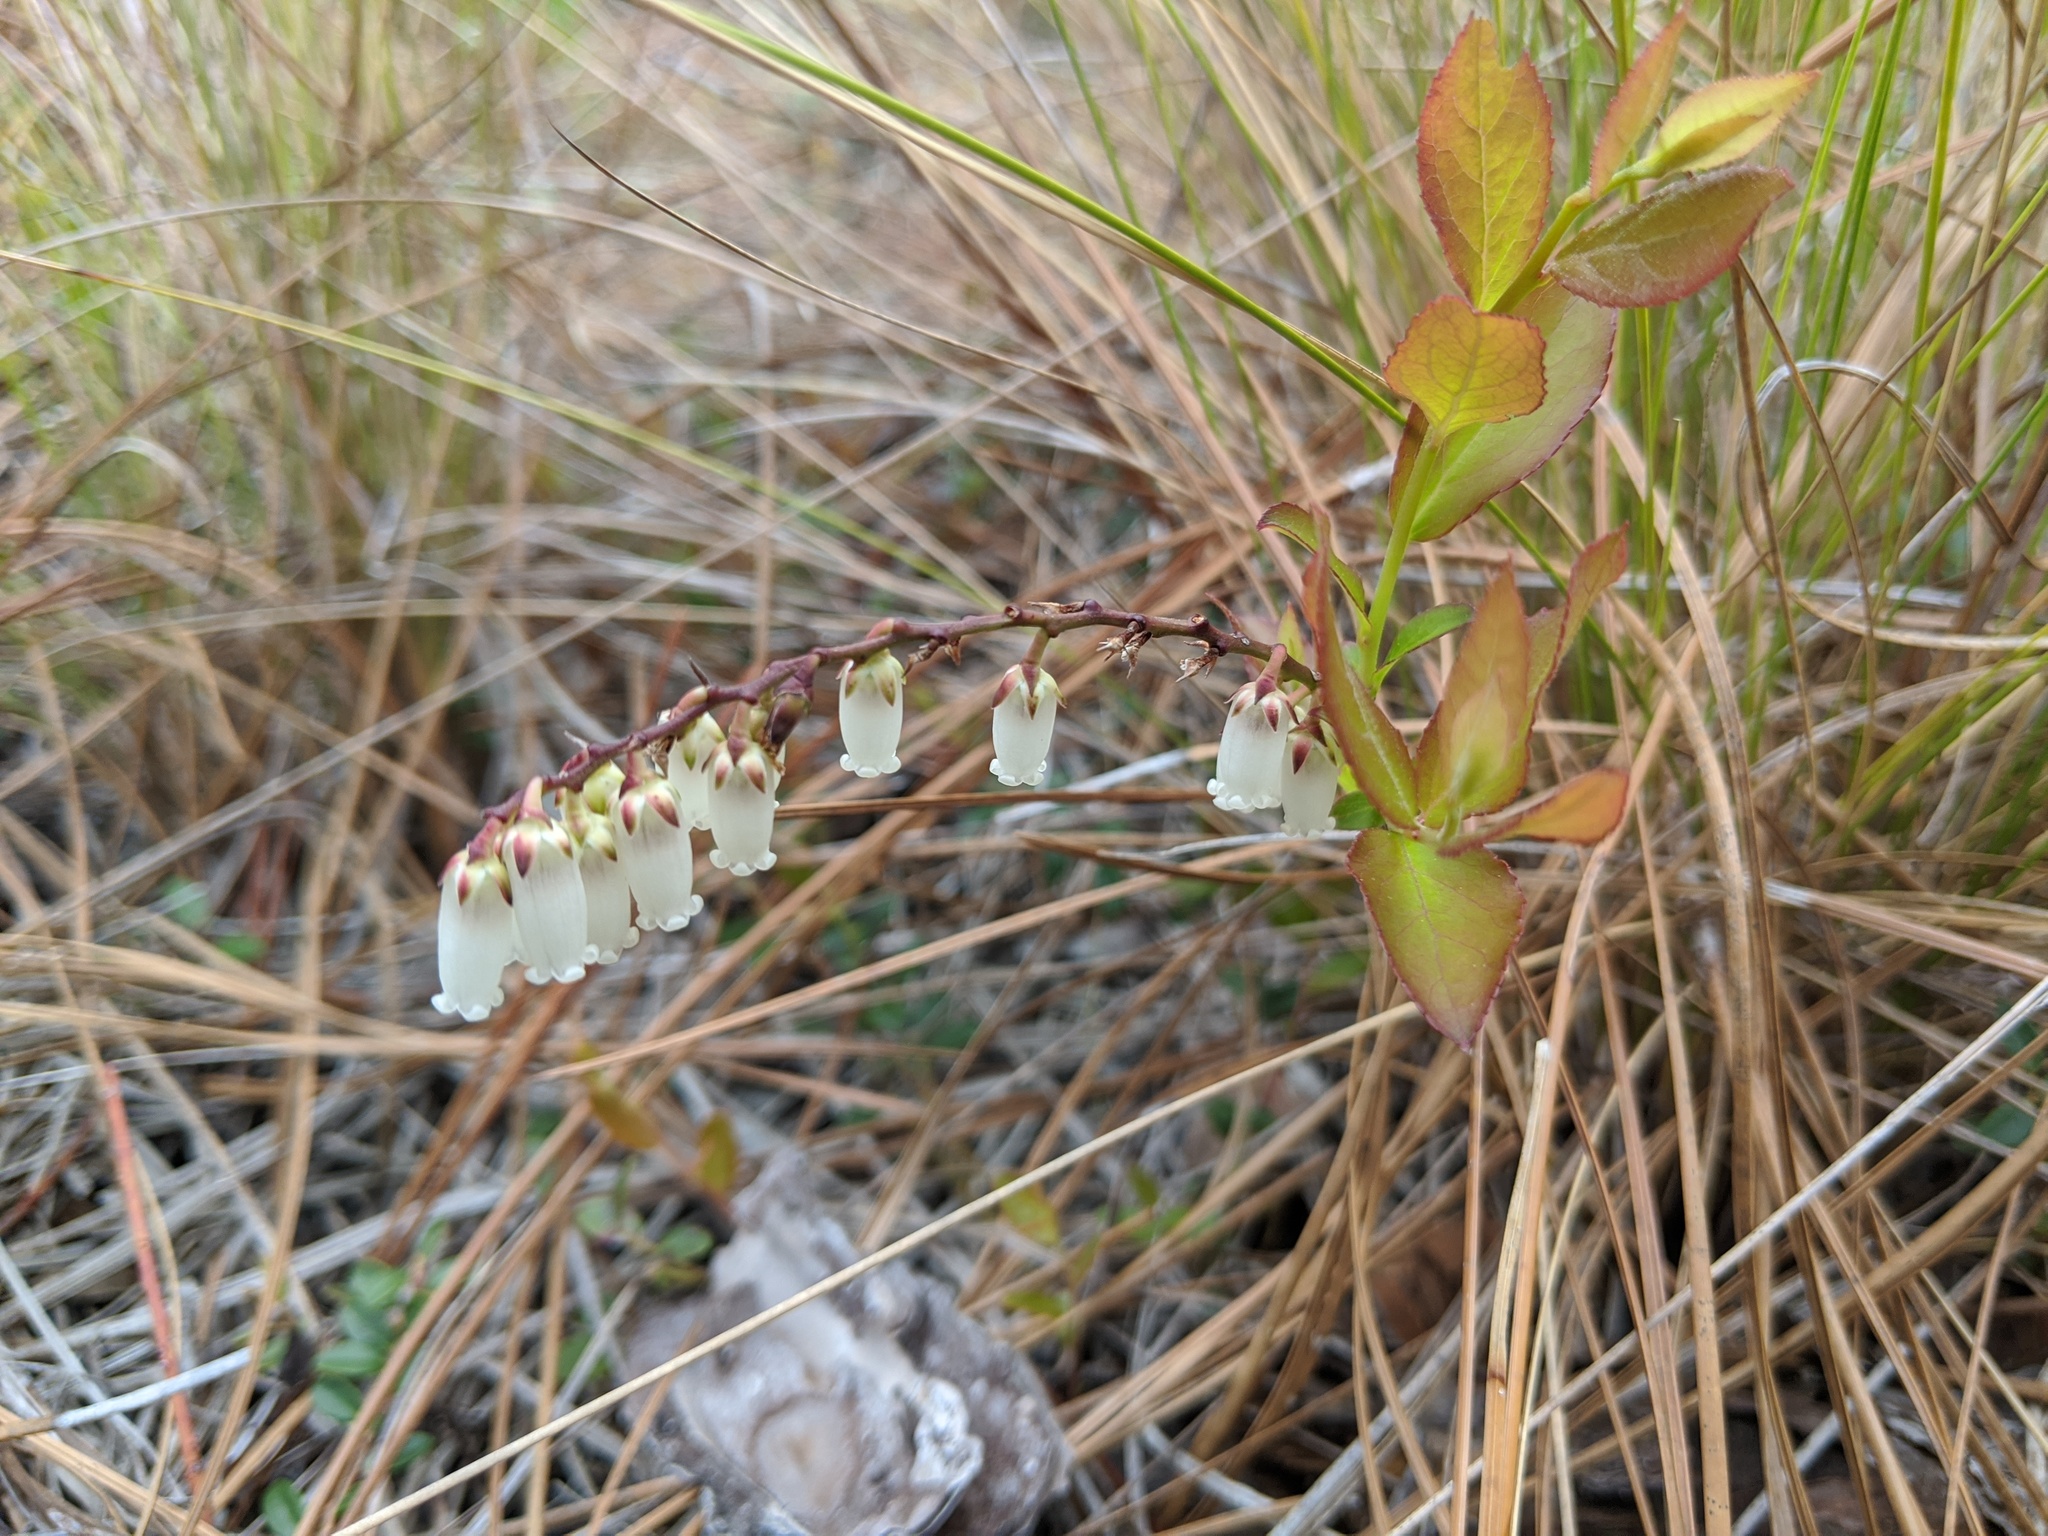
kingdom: Plantae
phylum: Tracheophyta
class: Magnoliopsida
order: Ericales
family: Ericaceae
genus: Eubotrys
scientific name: Eubotrys racemosa
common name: Fetterbush
